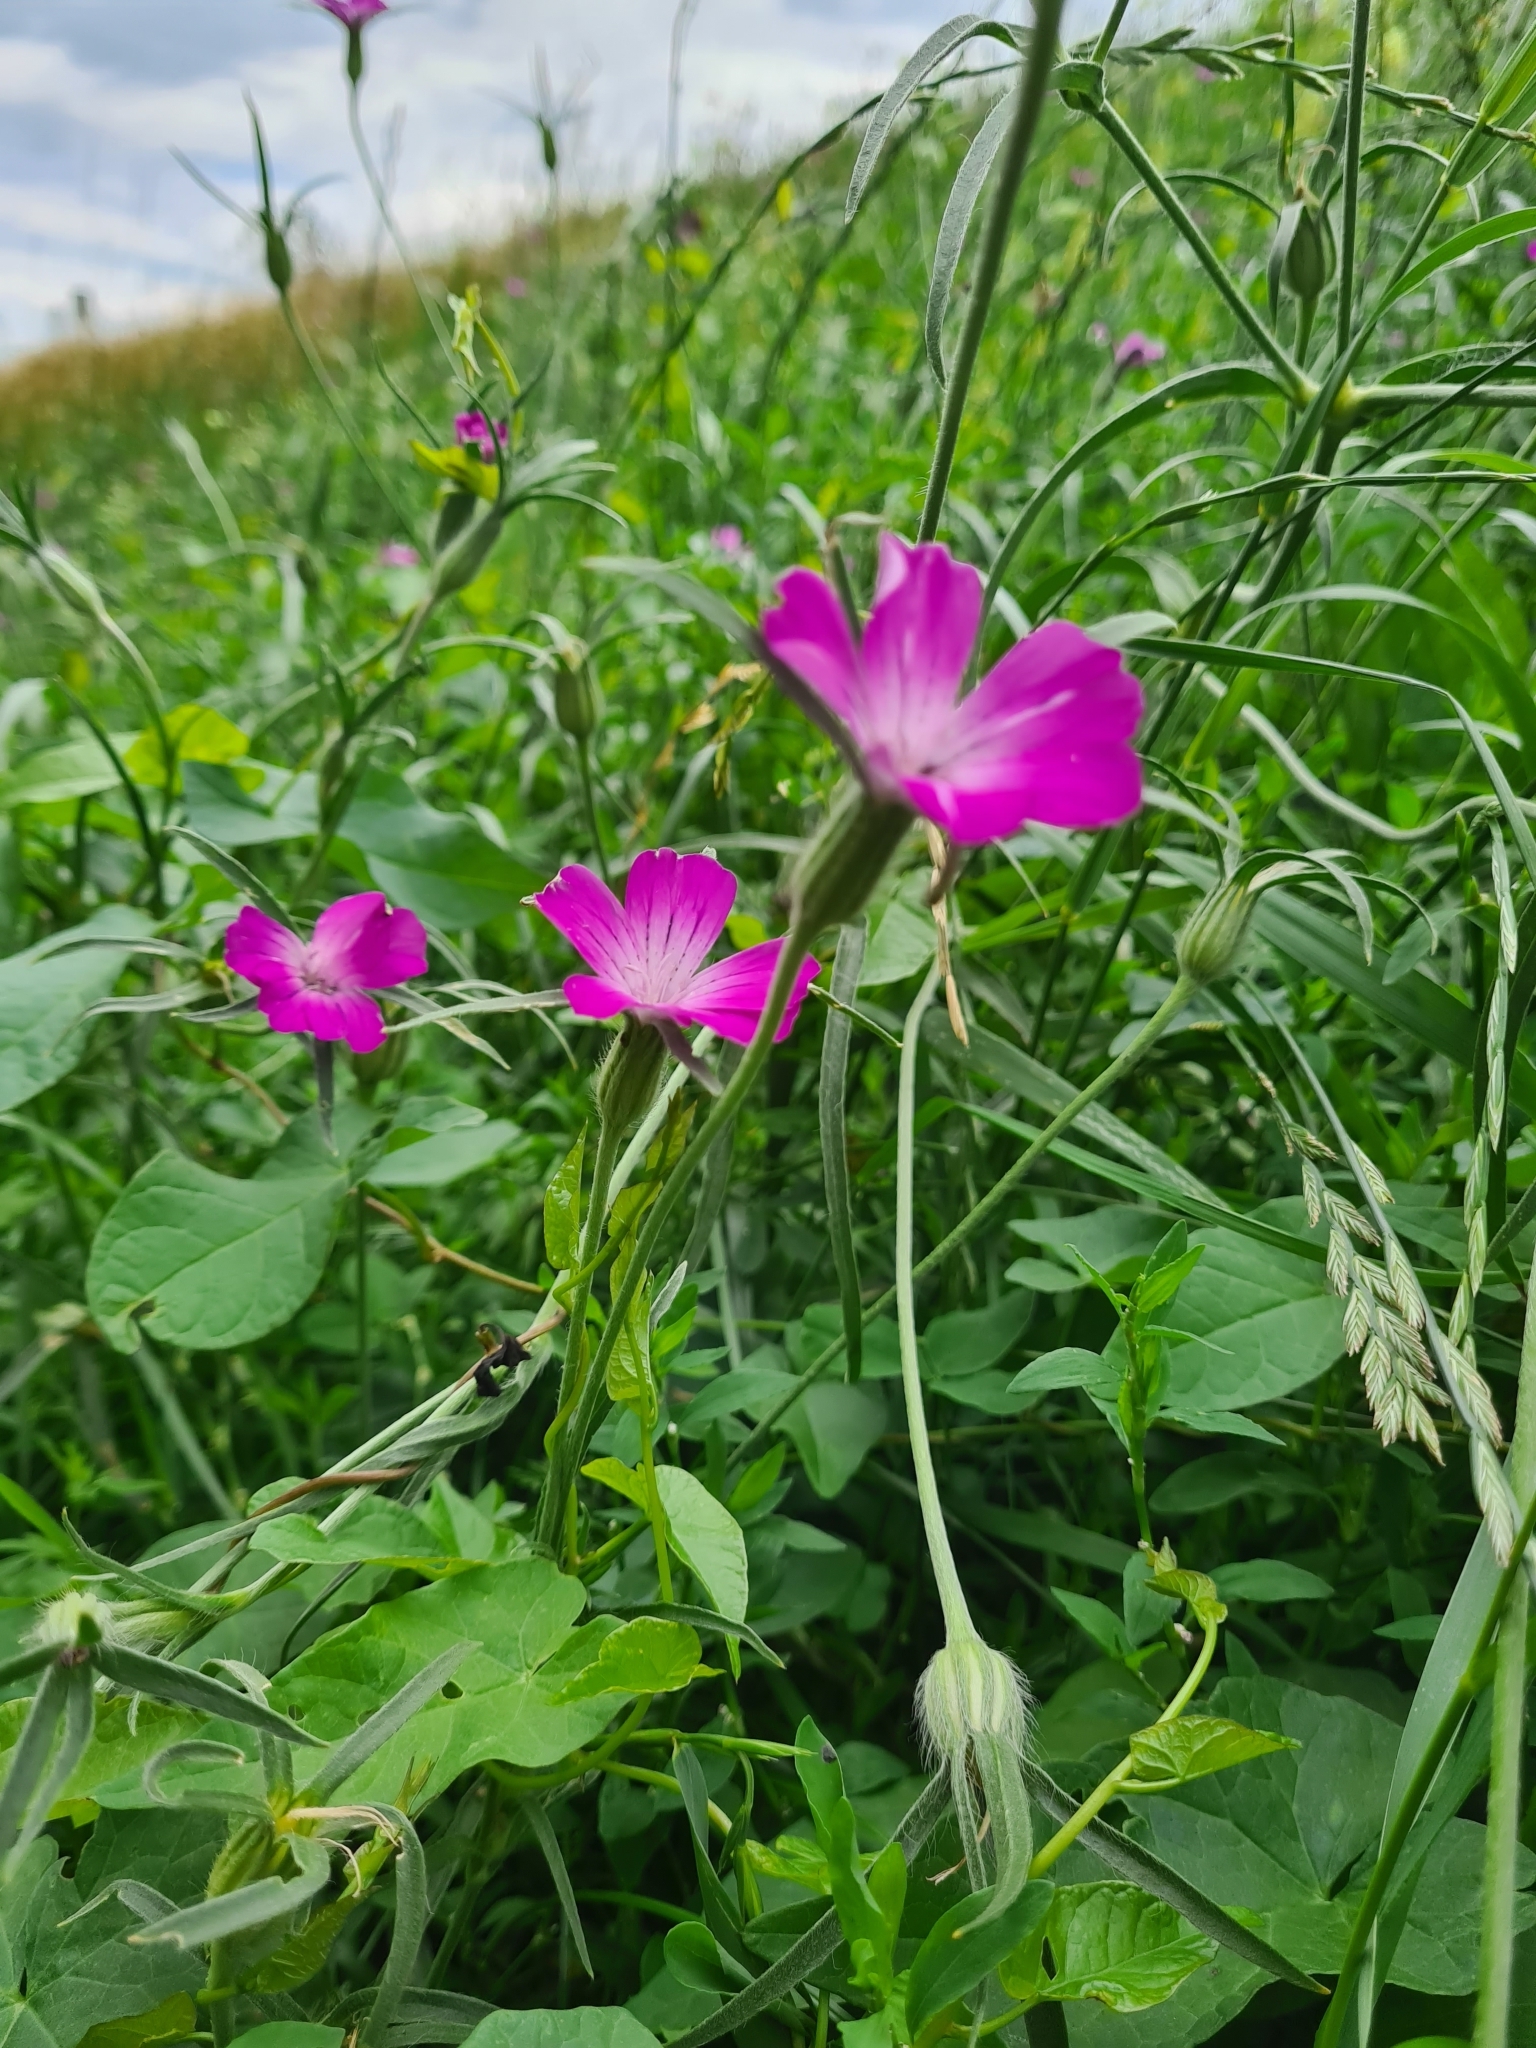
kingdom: Plantae
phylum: Tracheophyta
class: Magnoliopsida
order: Caryophyllales
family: Caryophyllaceae
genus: Agrostemma
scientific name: Agrostemma githago
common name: Common corncockle
